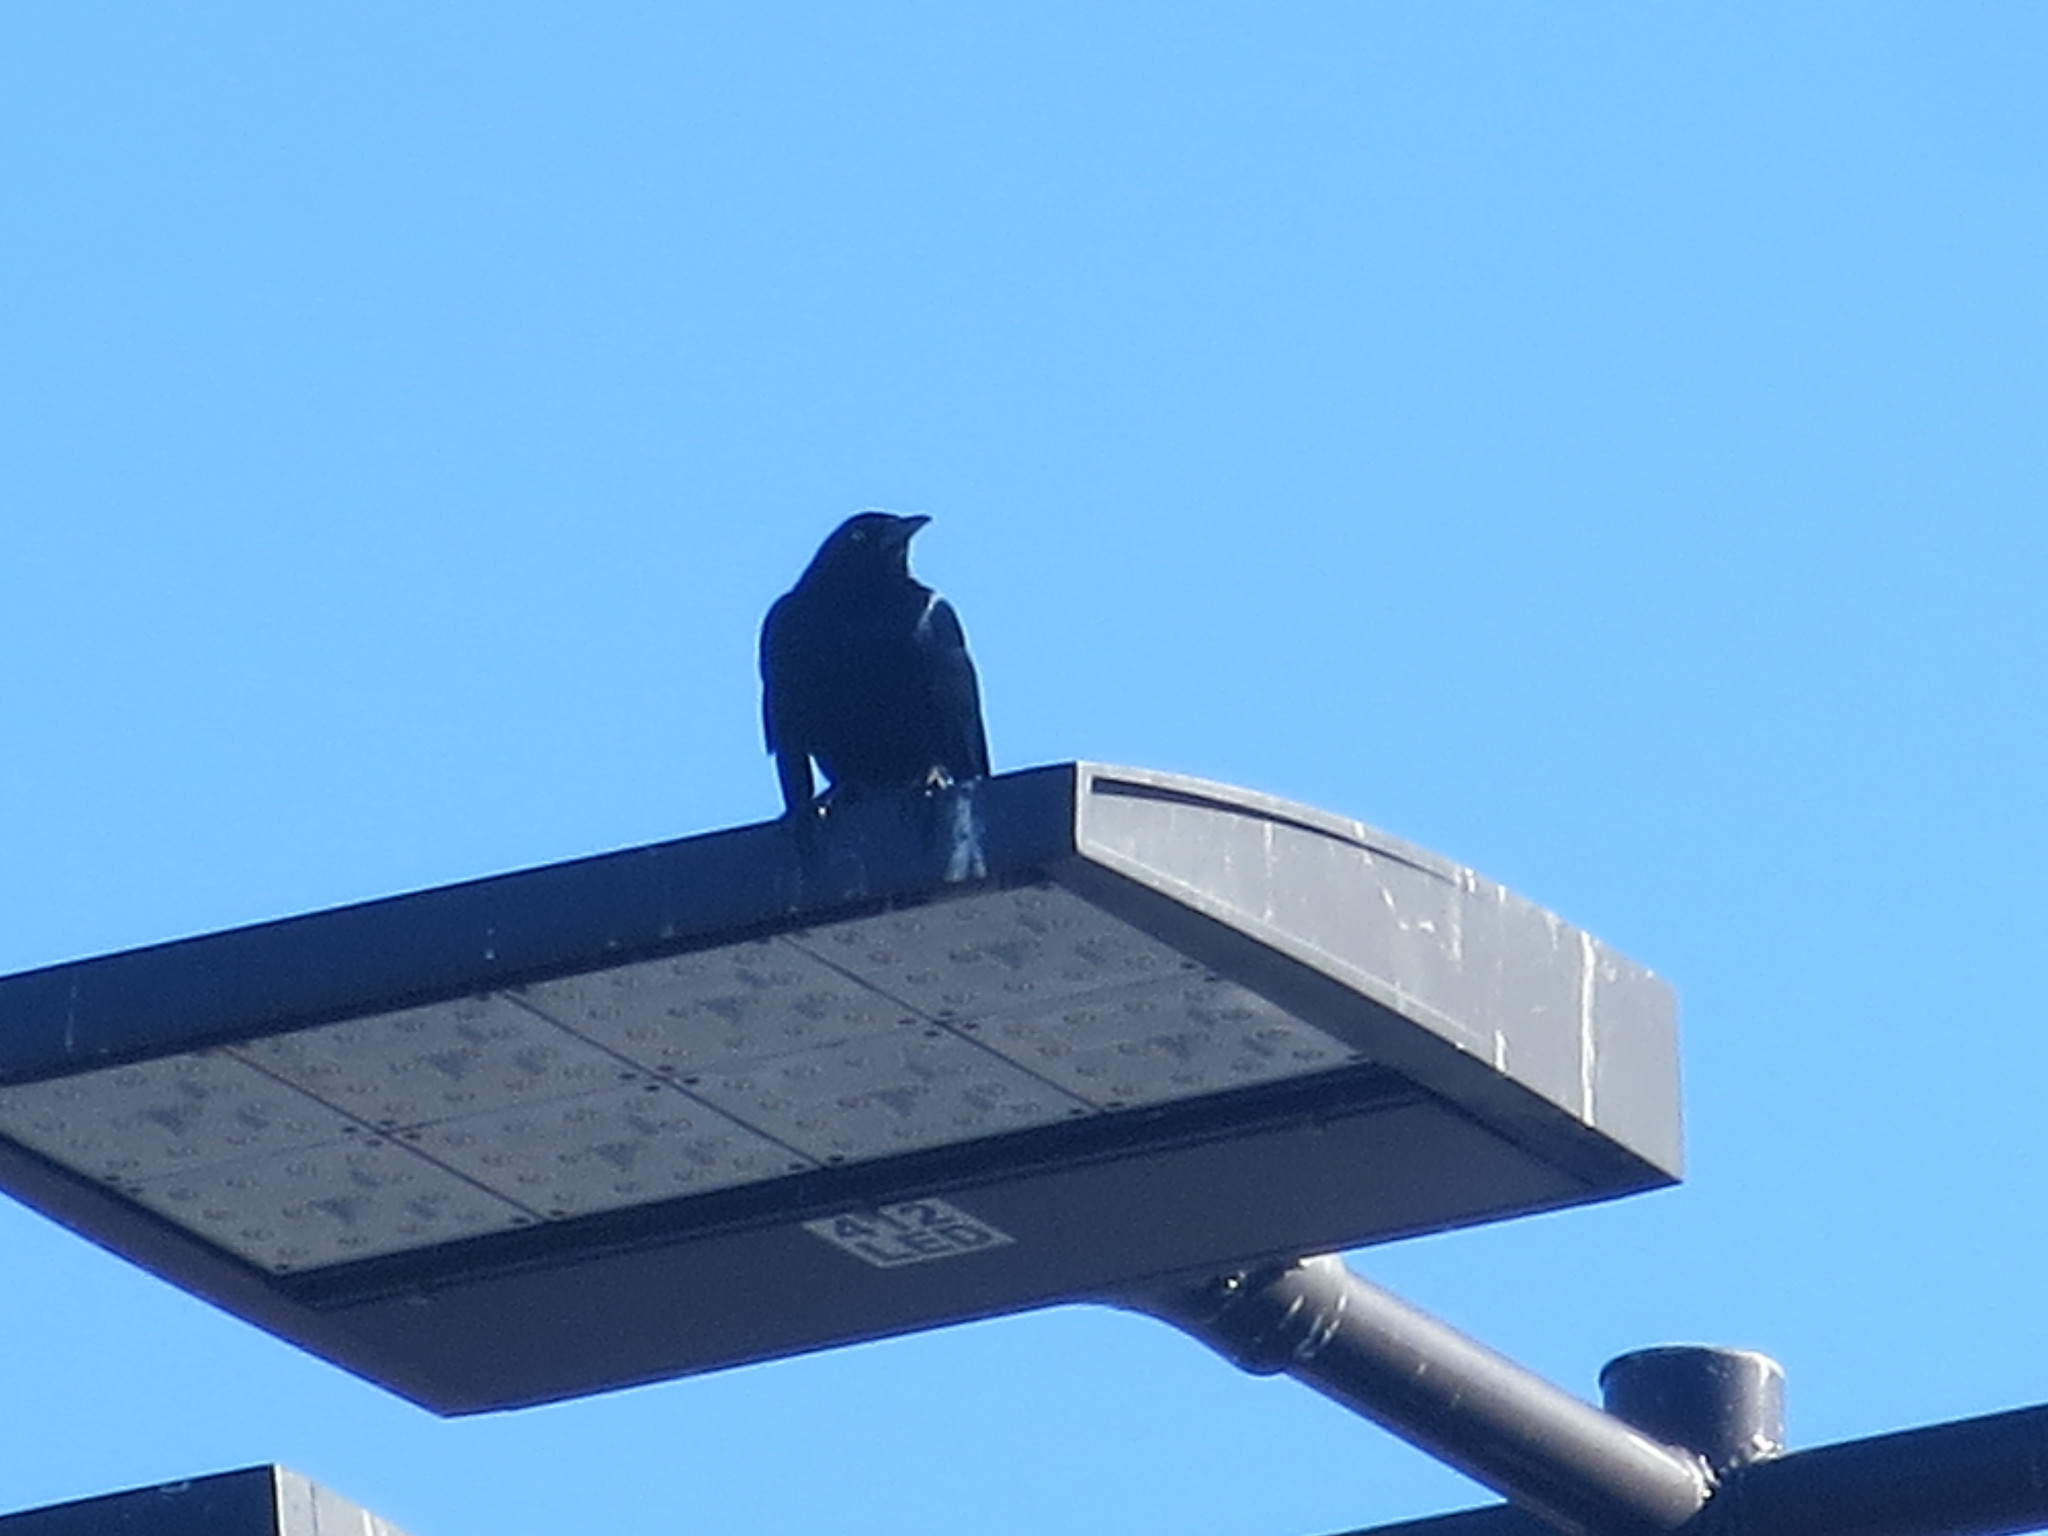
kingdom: Animalia
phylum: Chordata
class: Aves
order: Passeriformes
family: Icteridae
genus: Quiscalus
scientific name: Quiscalus major
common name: Boat-tailed grackle
